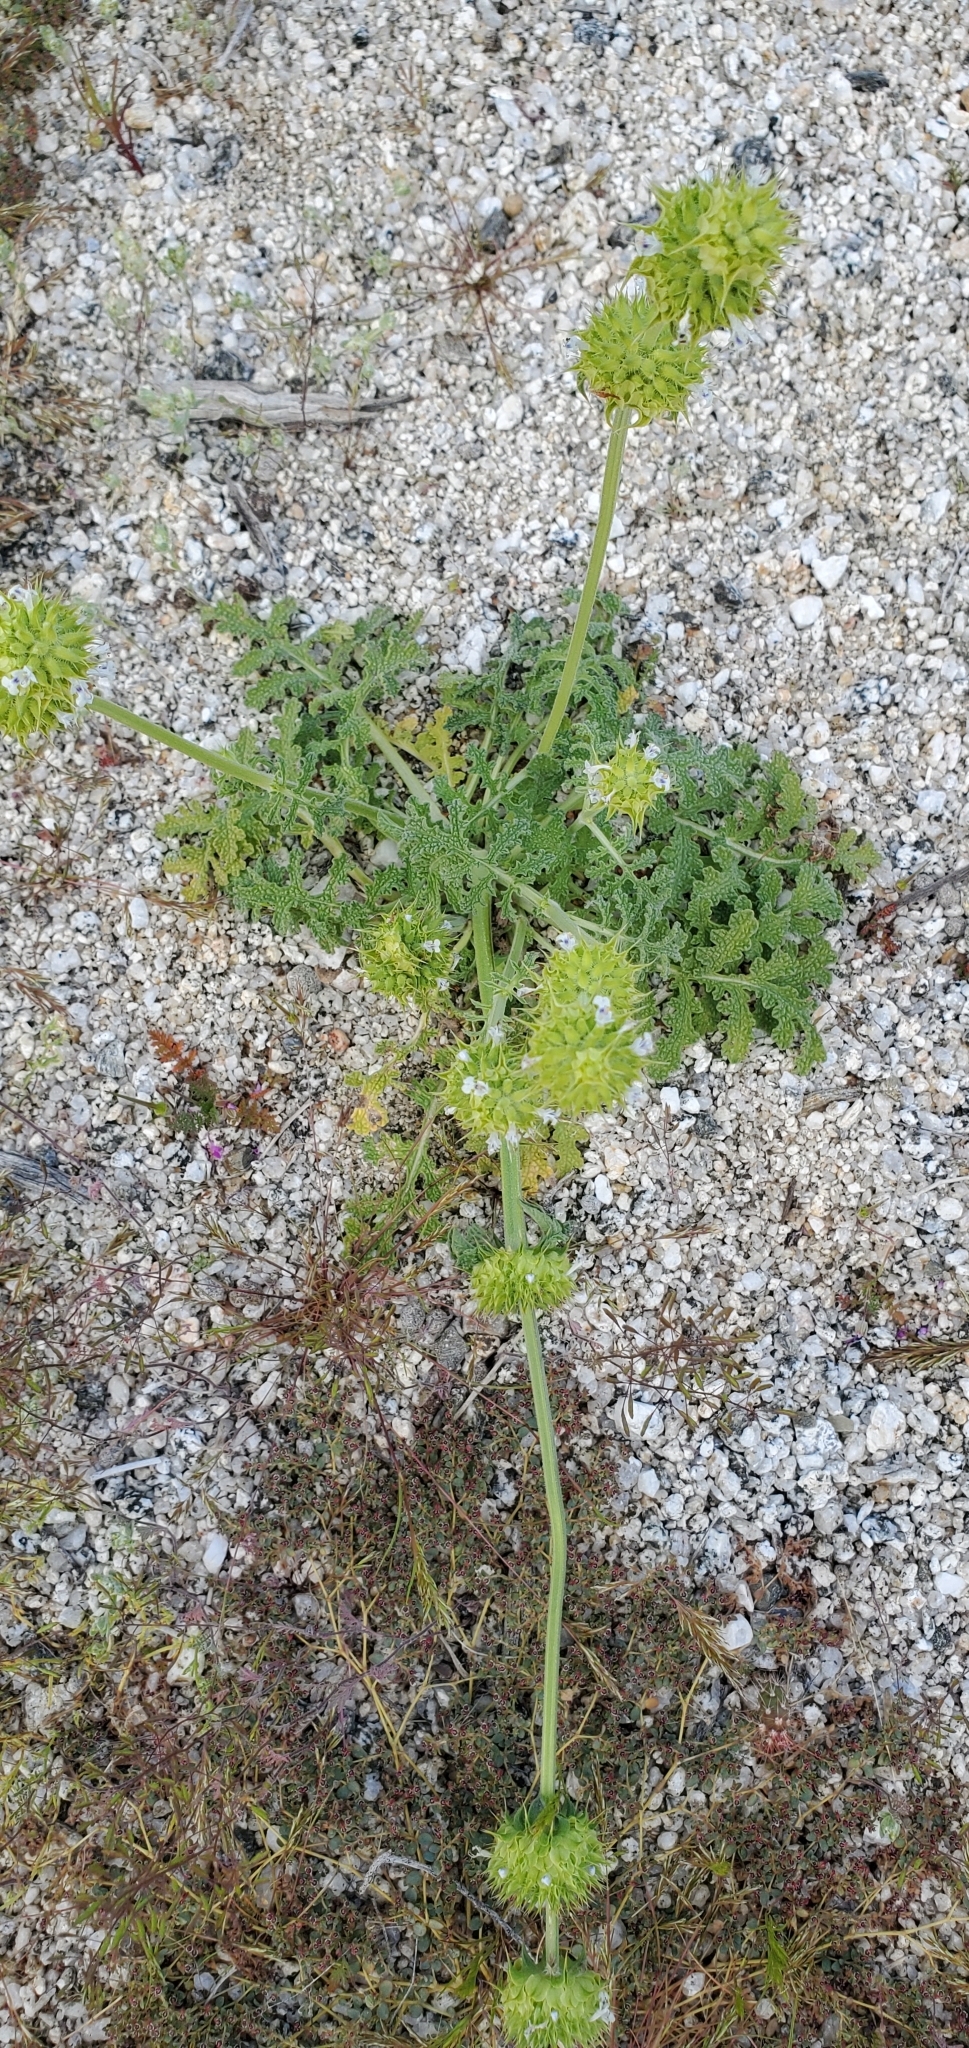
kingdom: Plantae
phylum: Tracheophyta
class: Magnoliopsida
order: Lamiales
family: Lamiaceae
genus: Salvia
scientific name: Salvia columbariae
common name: Chia
